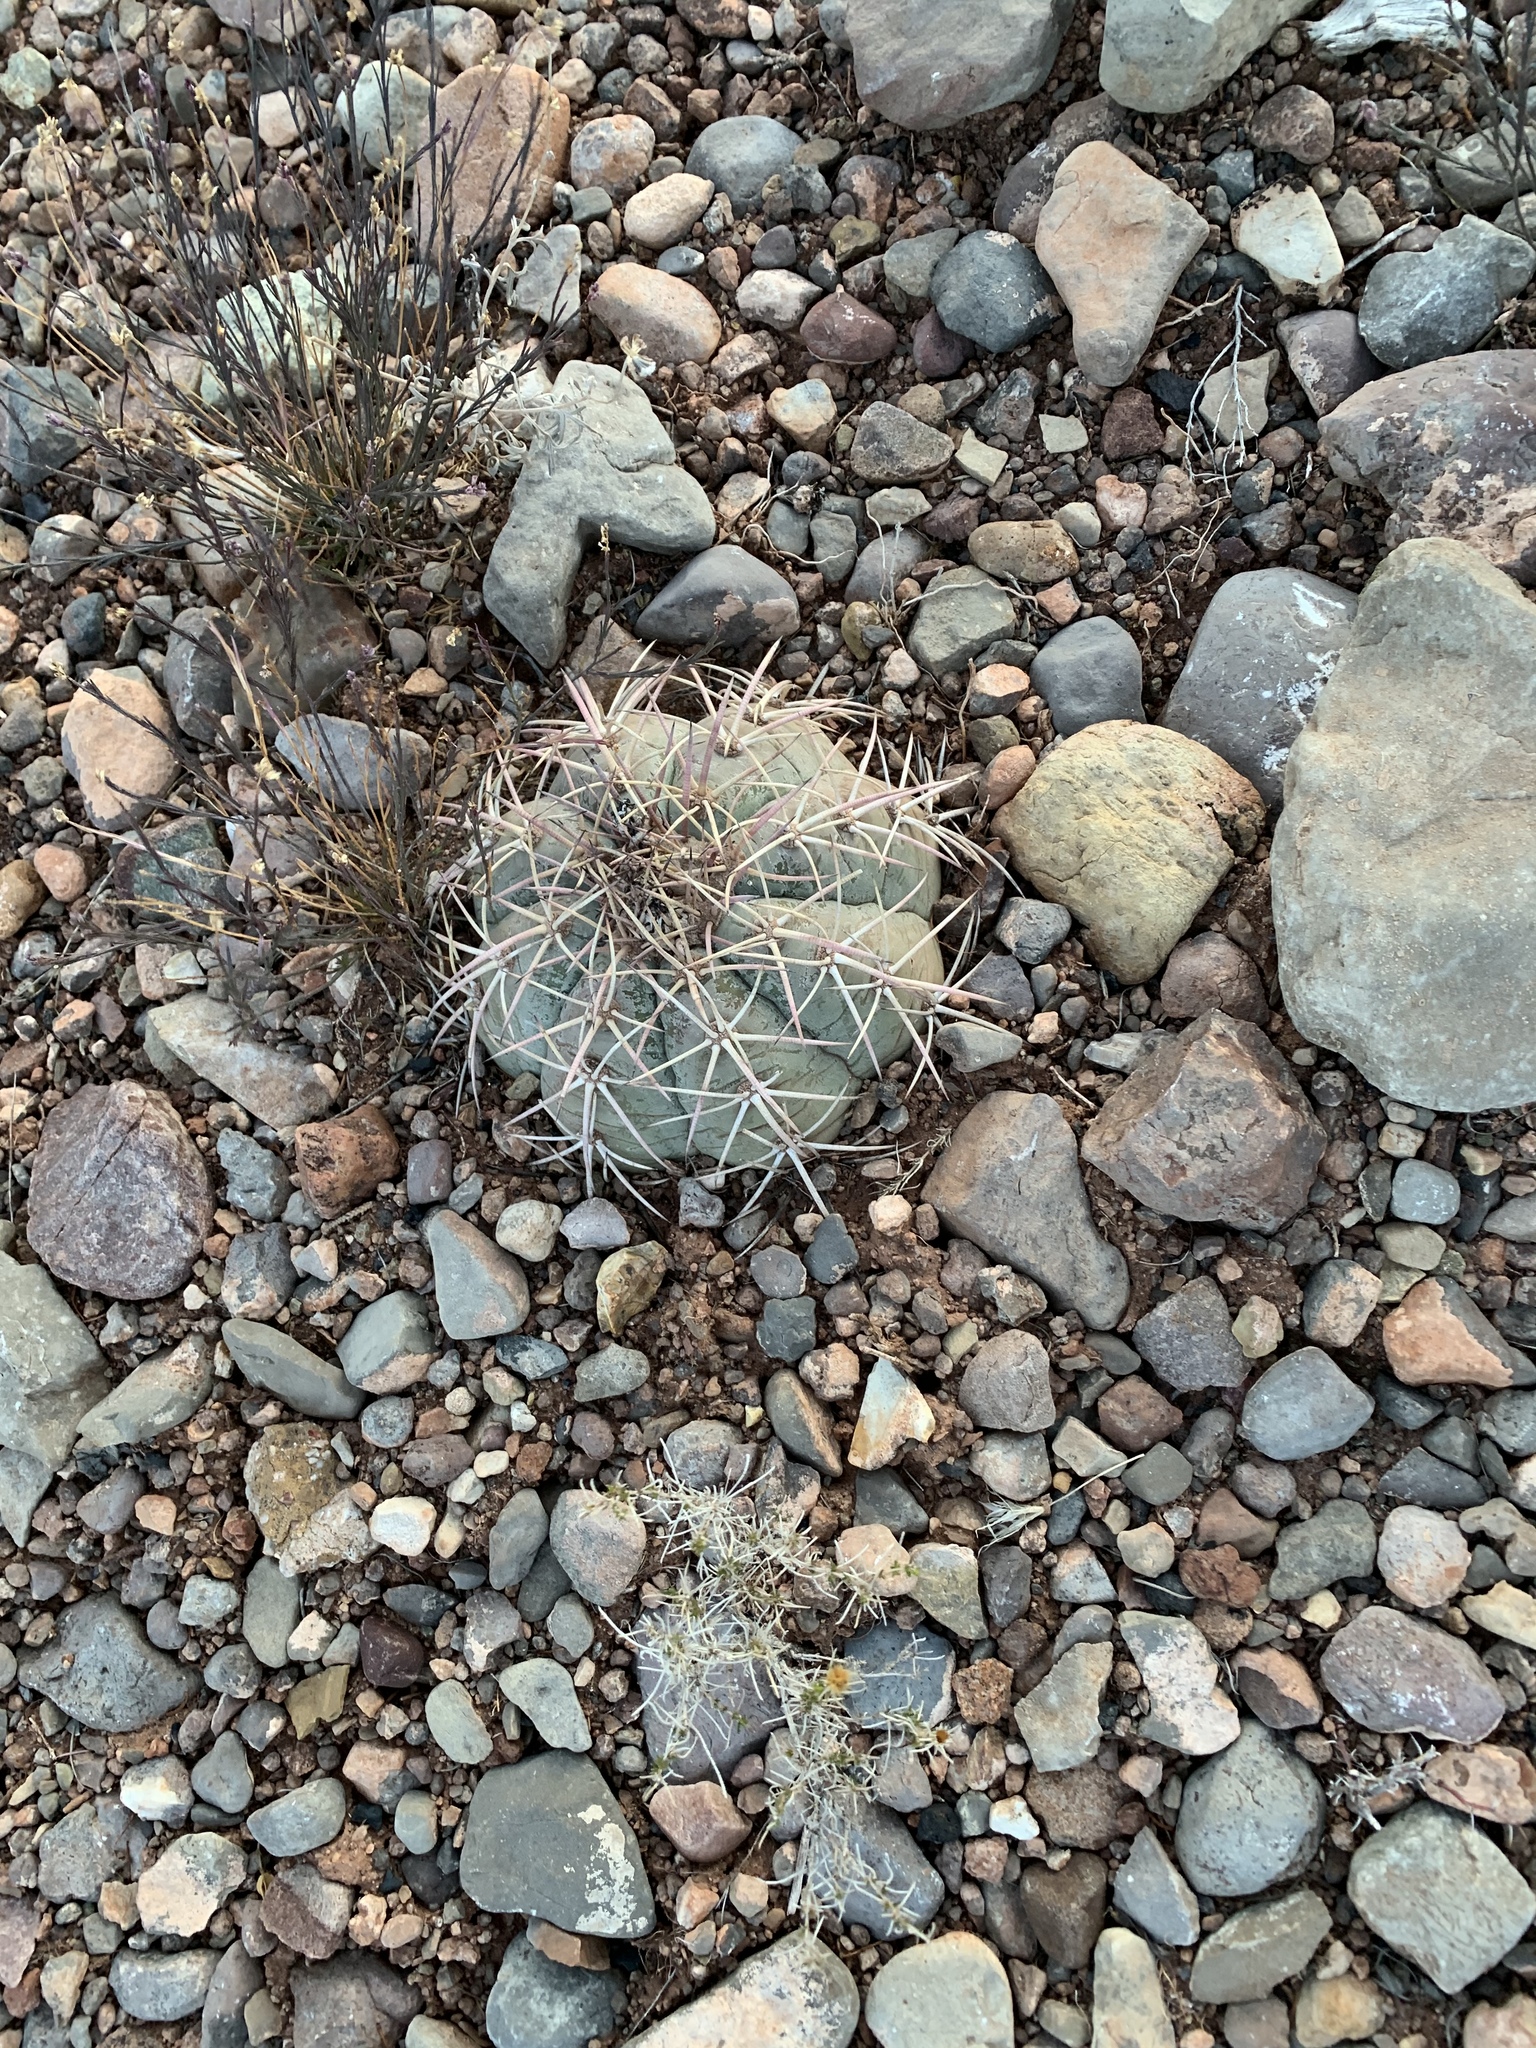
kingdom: Plantae
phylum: Tracheophyta
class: Magnoliopsida
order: Caryophyllales
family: Cactaceae
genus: Echinocactus
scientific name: Echinocactus horizonthalonius
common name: Devilshead
